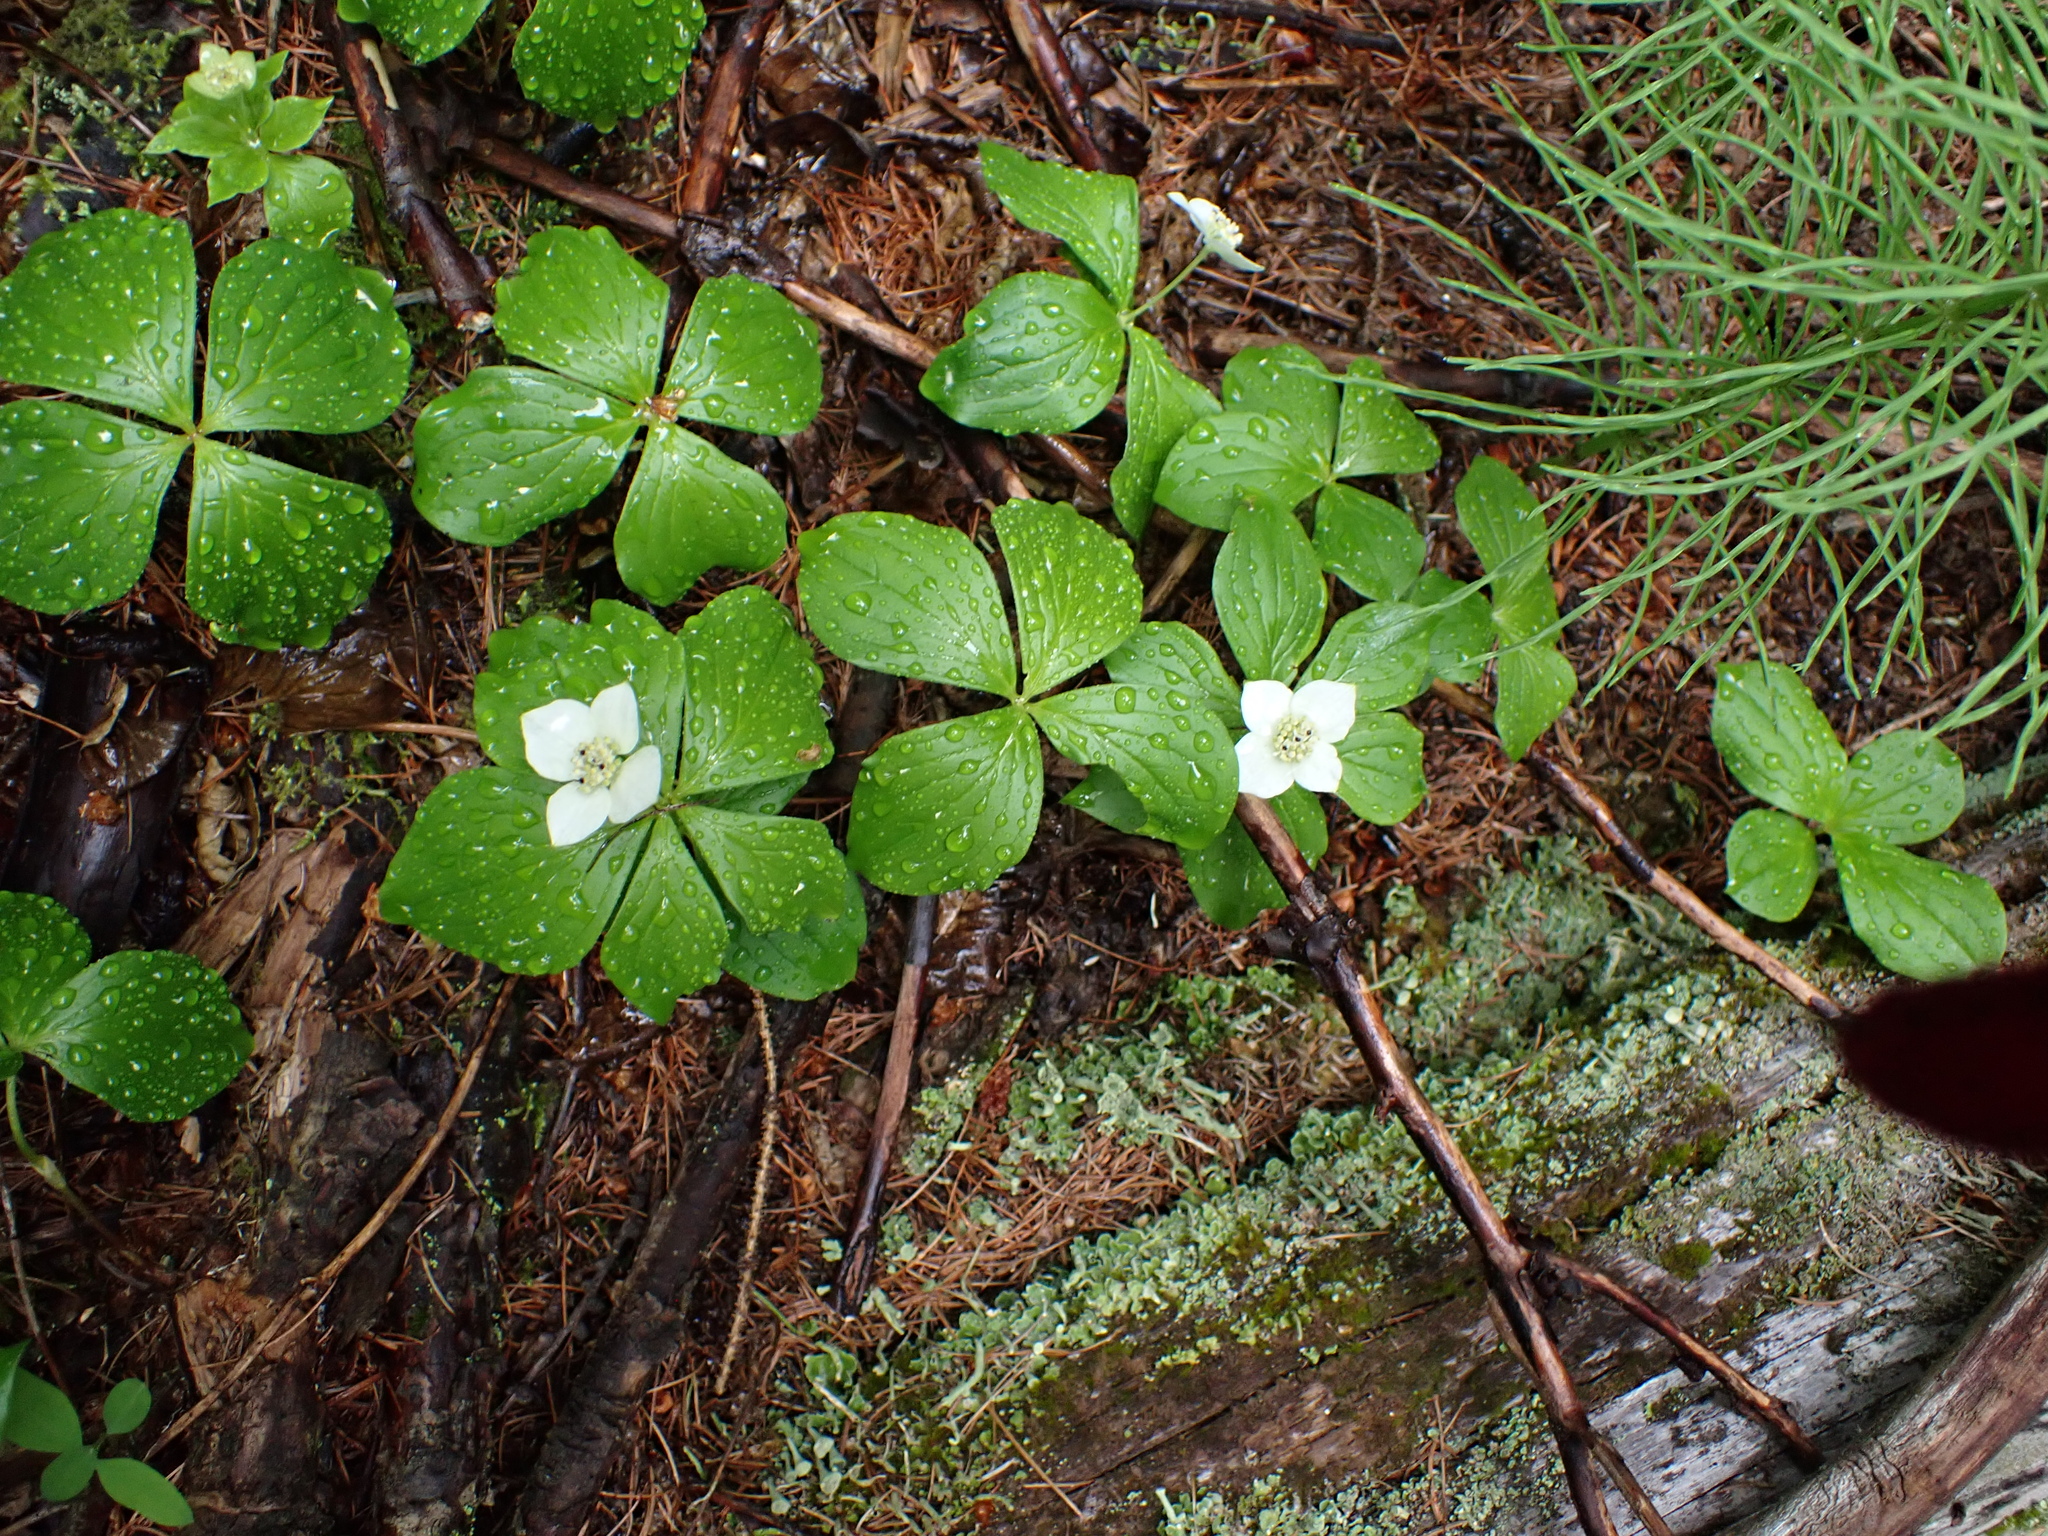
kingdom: Plantae
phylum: Tracheophyta
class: Magnoliopsida
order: Cornales
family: Cornaceae
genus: Cornus
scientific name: Cornus canadensis
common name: Creeping dogwood
